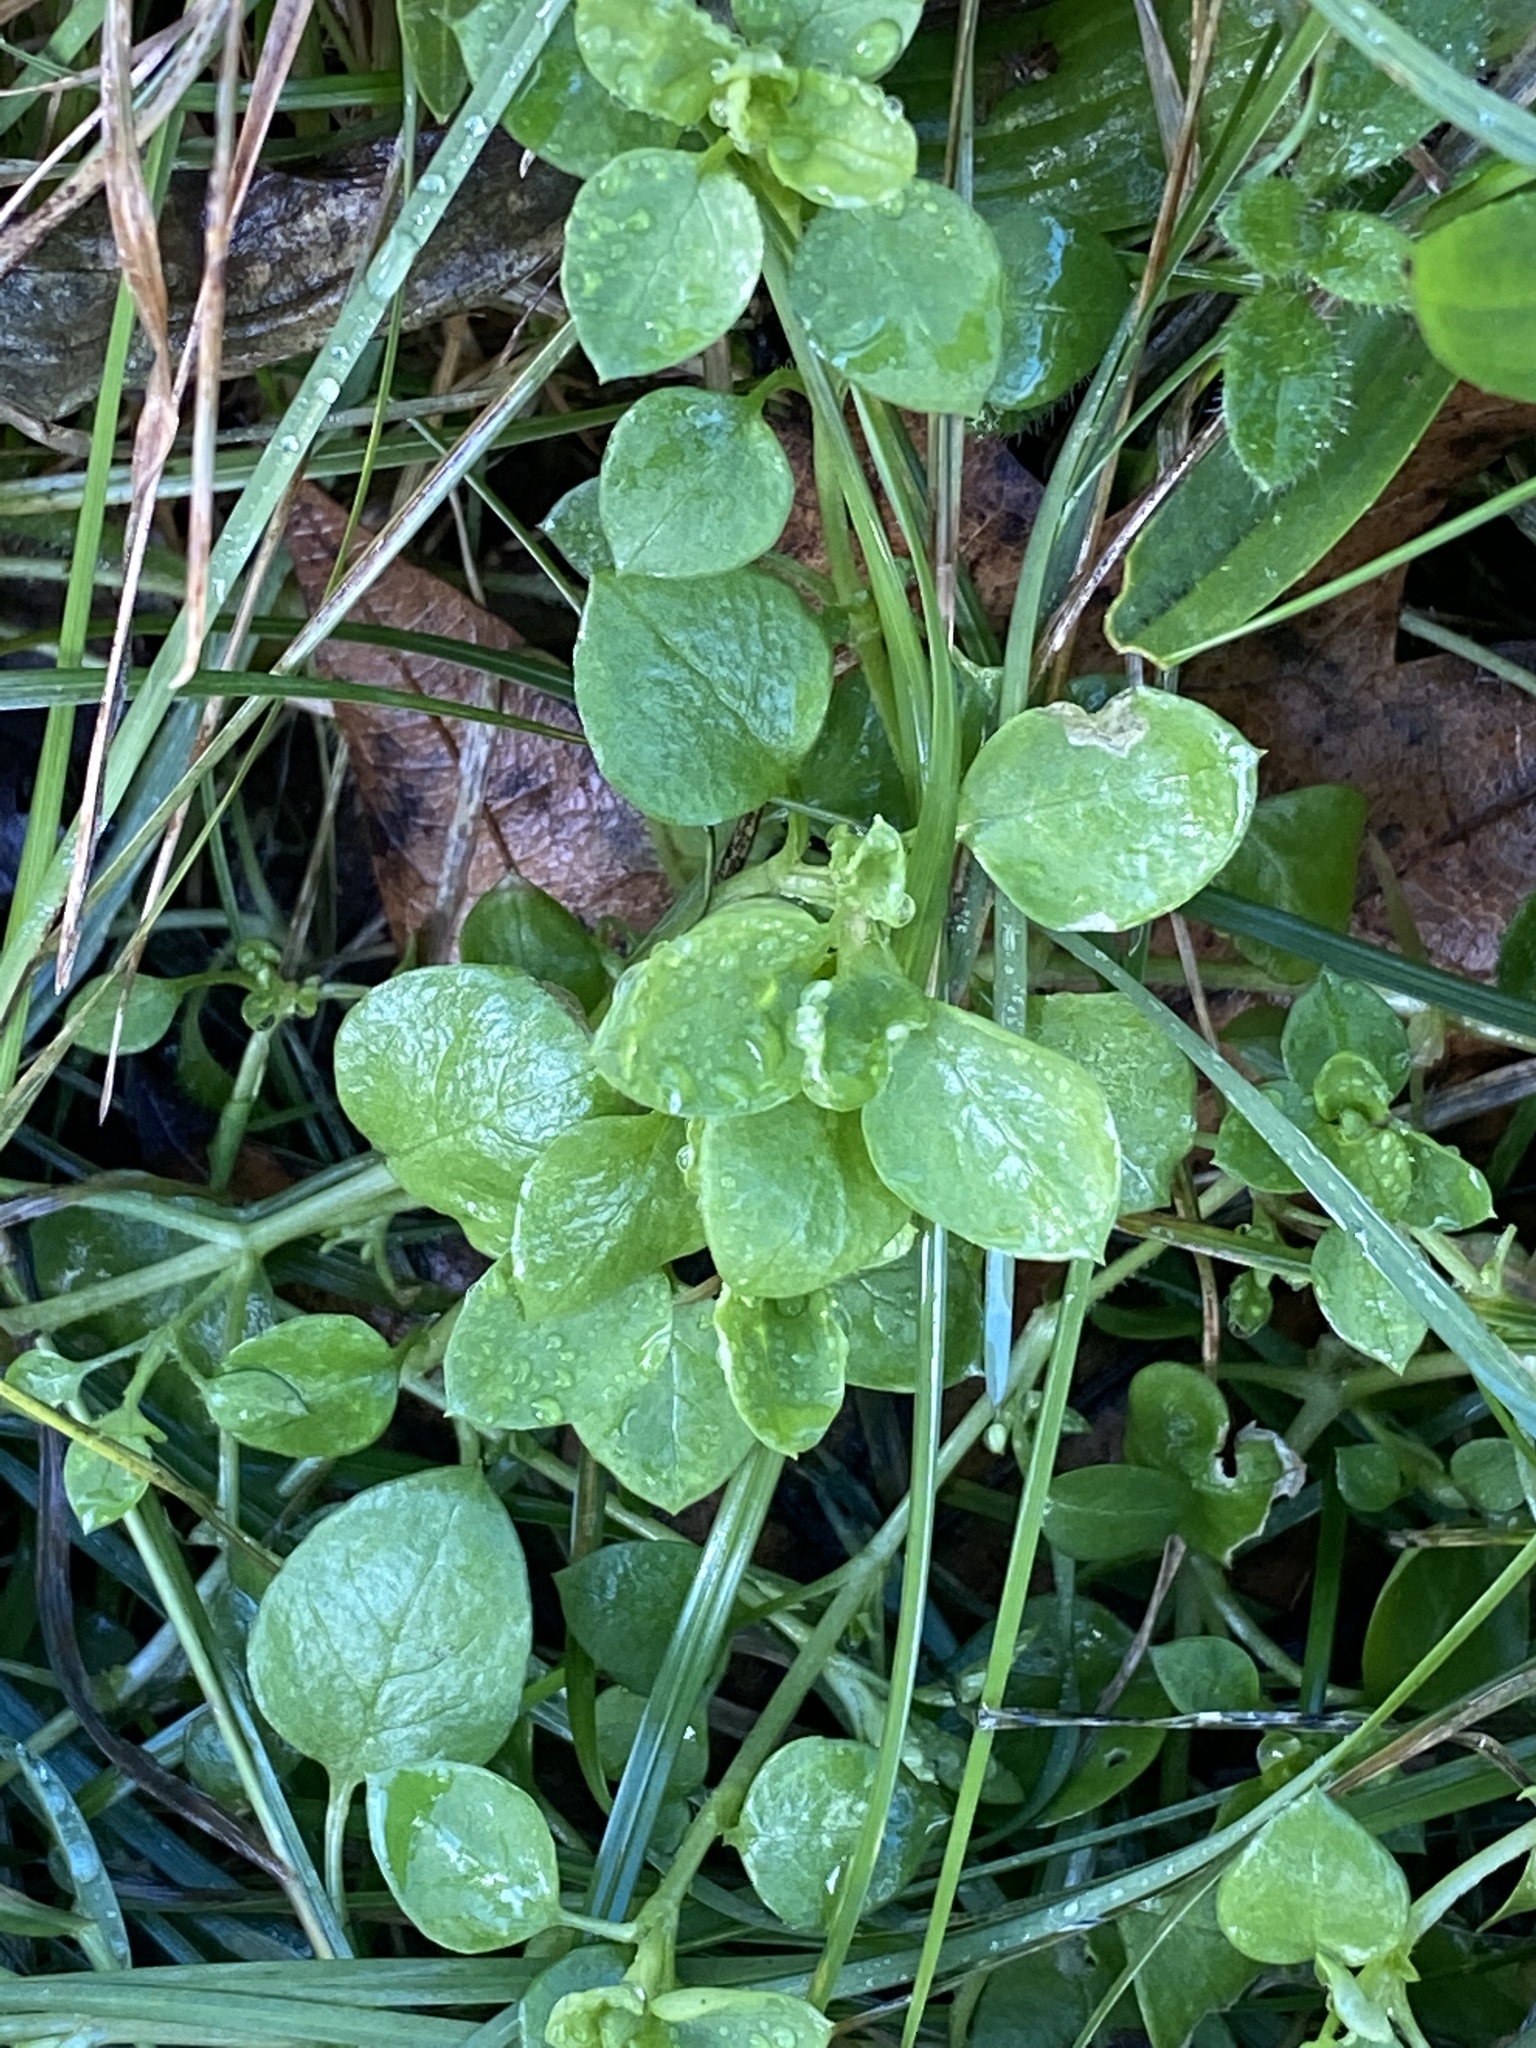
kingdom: Plantae
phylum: Tracheophyta
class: Magnoliopsida
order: Caryophyllales
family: Caryophyllaceae
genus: Stellaria
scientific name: Stellaria media
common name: Common chickweed
